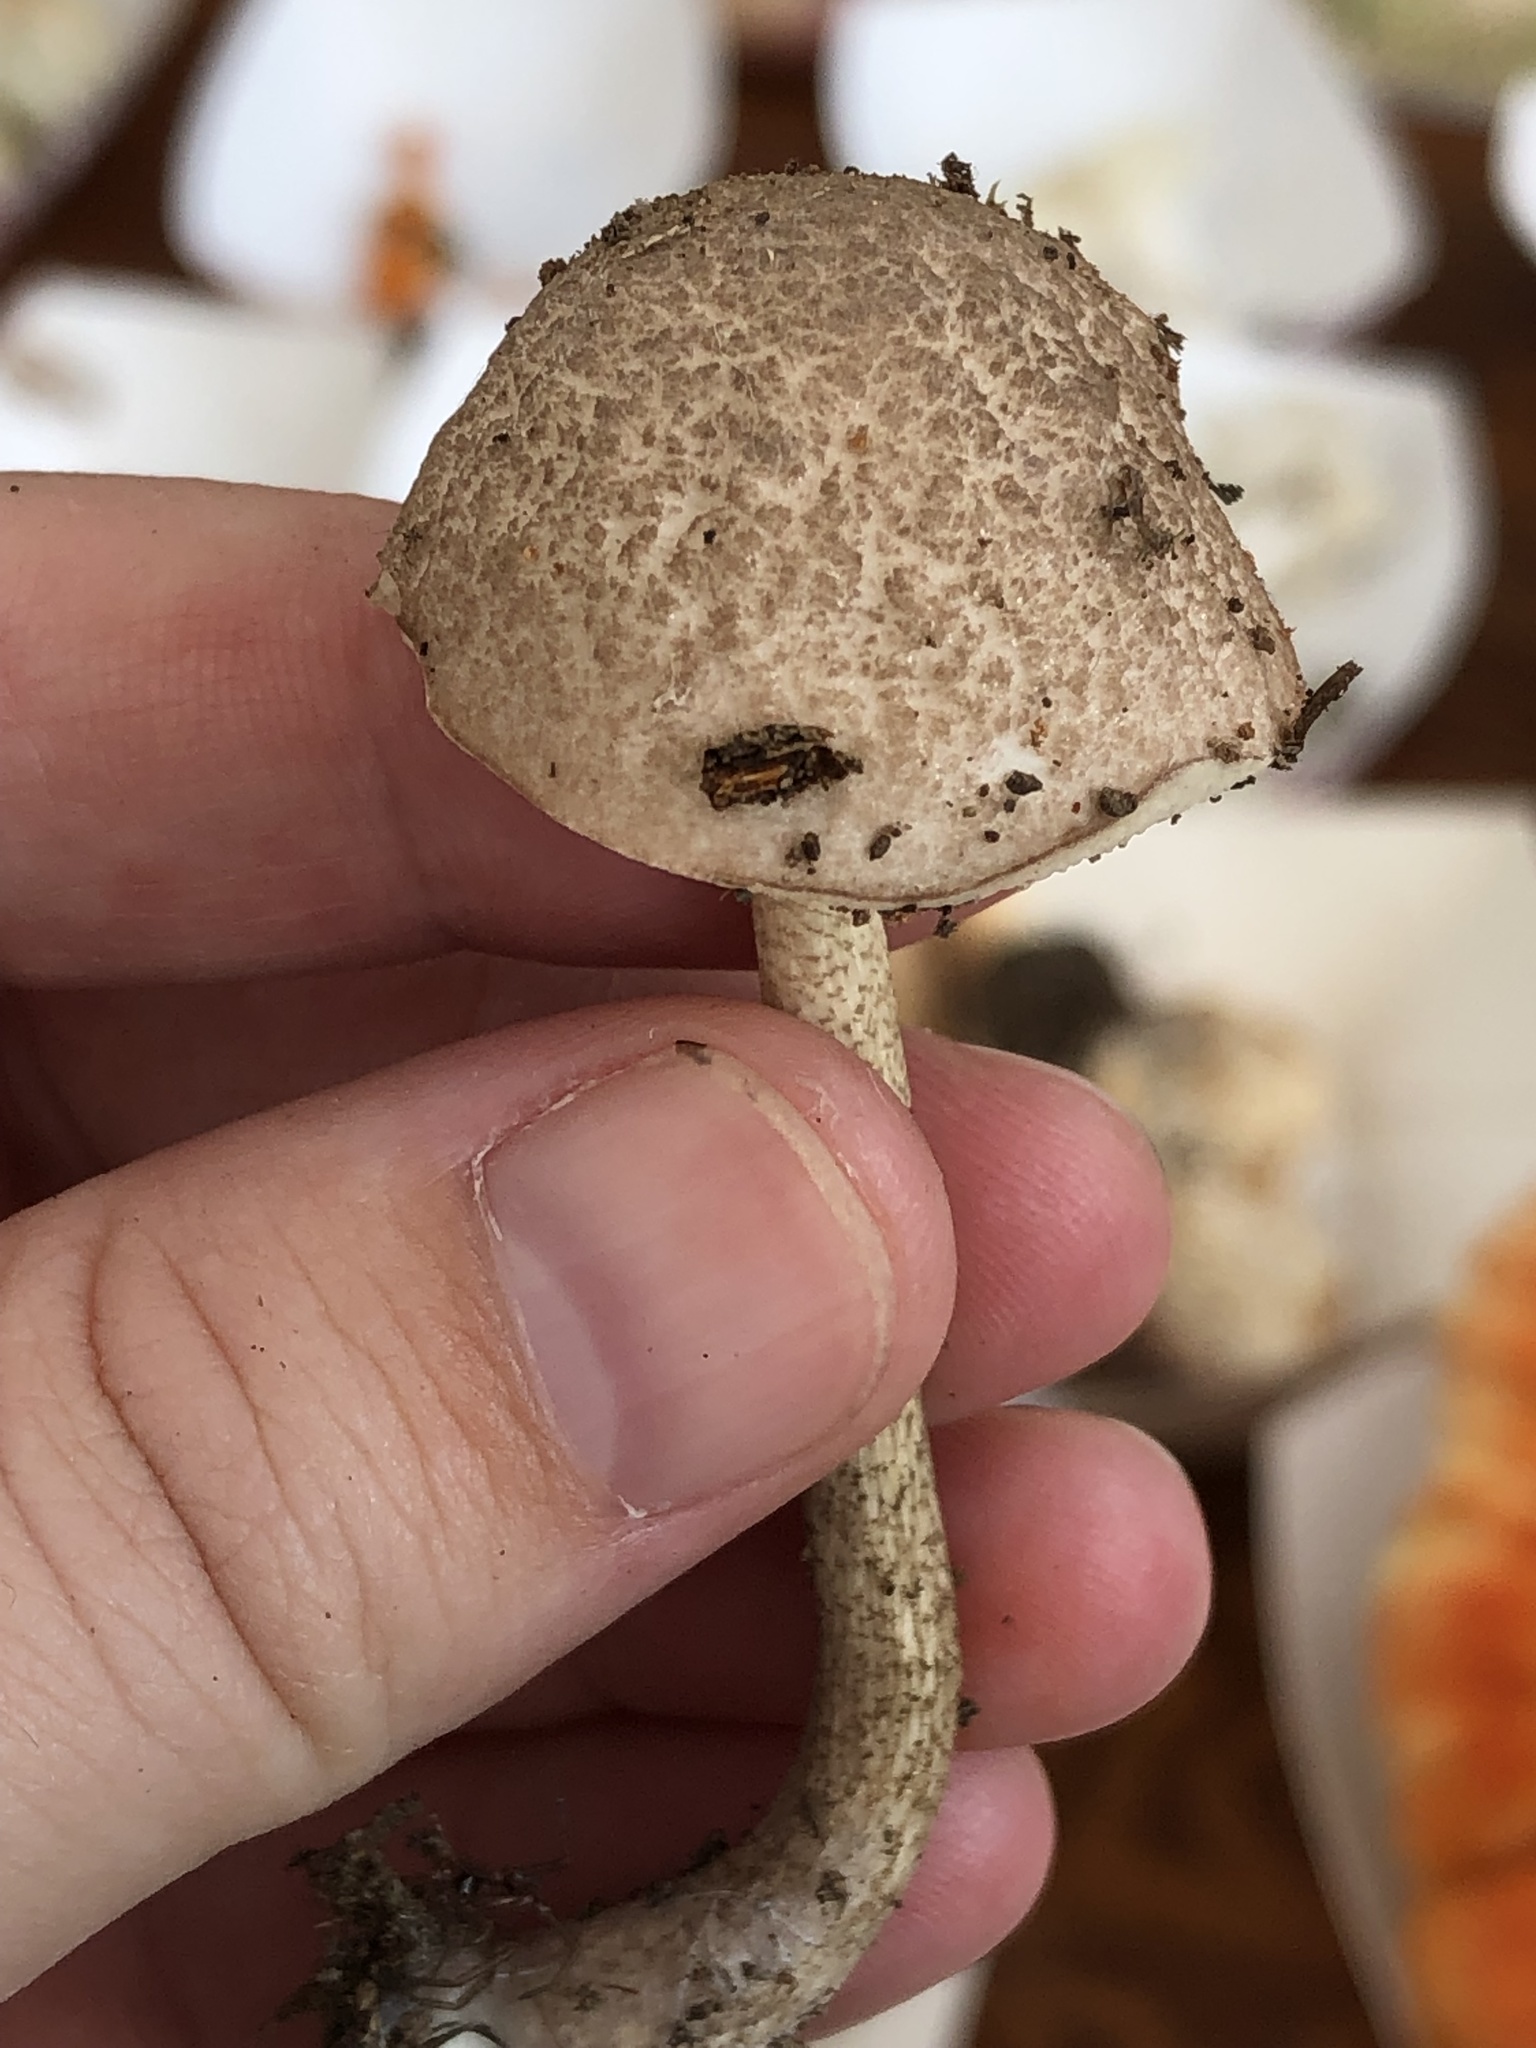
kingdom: Fungi
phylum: Basidiomycota
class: Agaricomycetes
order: Boletales
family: Boletaceae
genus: Leccinellum
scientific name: Leccinellum albellum
